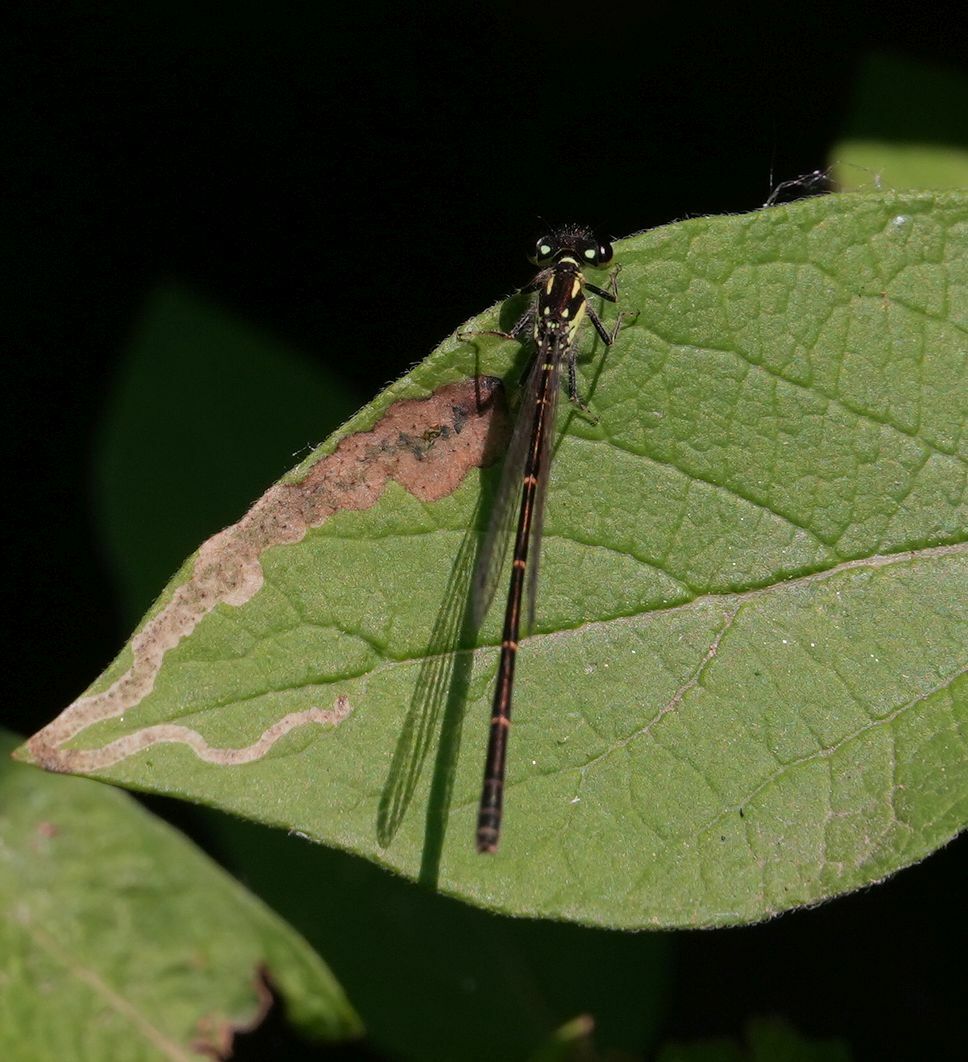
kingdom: Animalia
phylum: Arthropoda
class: Insecta
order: Odonata
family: Coenagrionidae
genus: Ischnura
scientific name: Ischnura posita
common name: Fragile forktail
